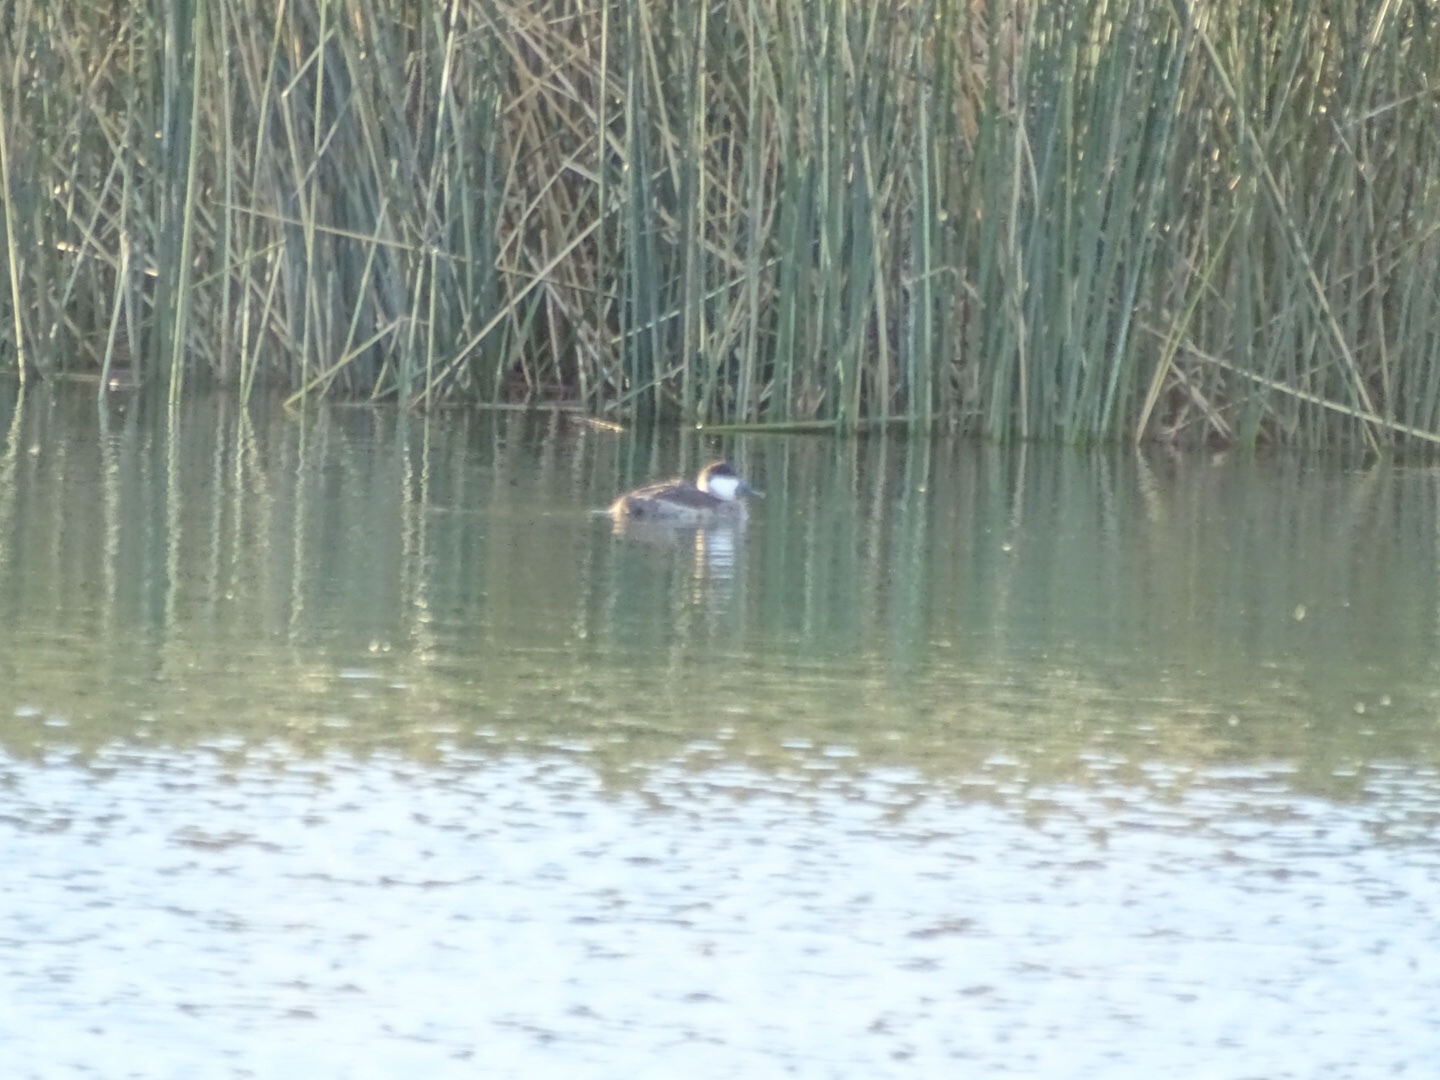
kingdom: Animalia
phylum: Chordata
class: Aves
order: Anseriformes
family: Anatidae
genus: Oxyura
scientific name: Oxyura jamaicensis
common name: Ruddy duck
